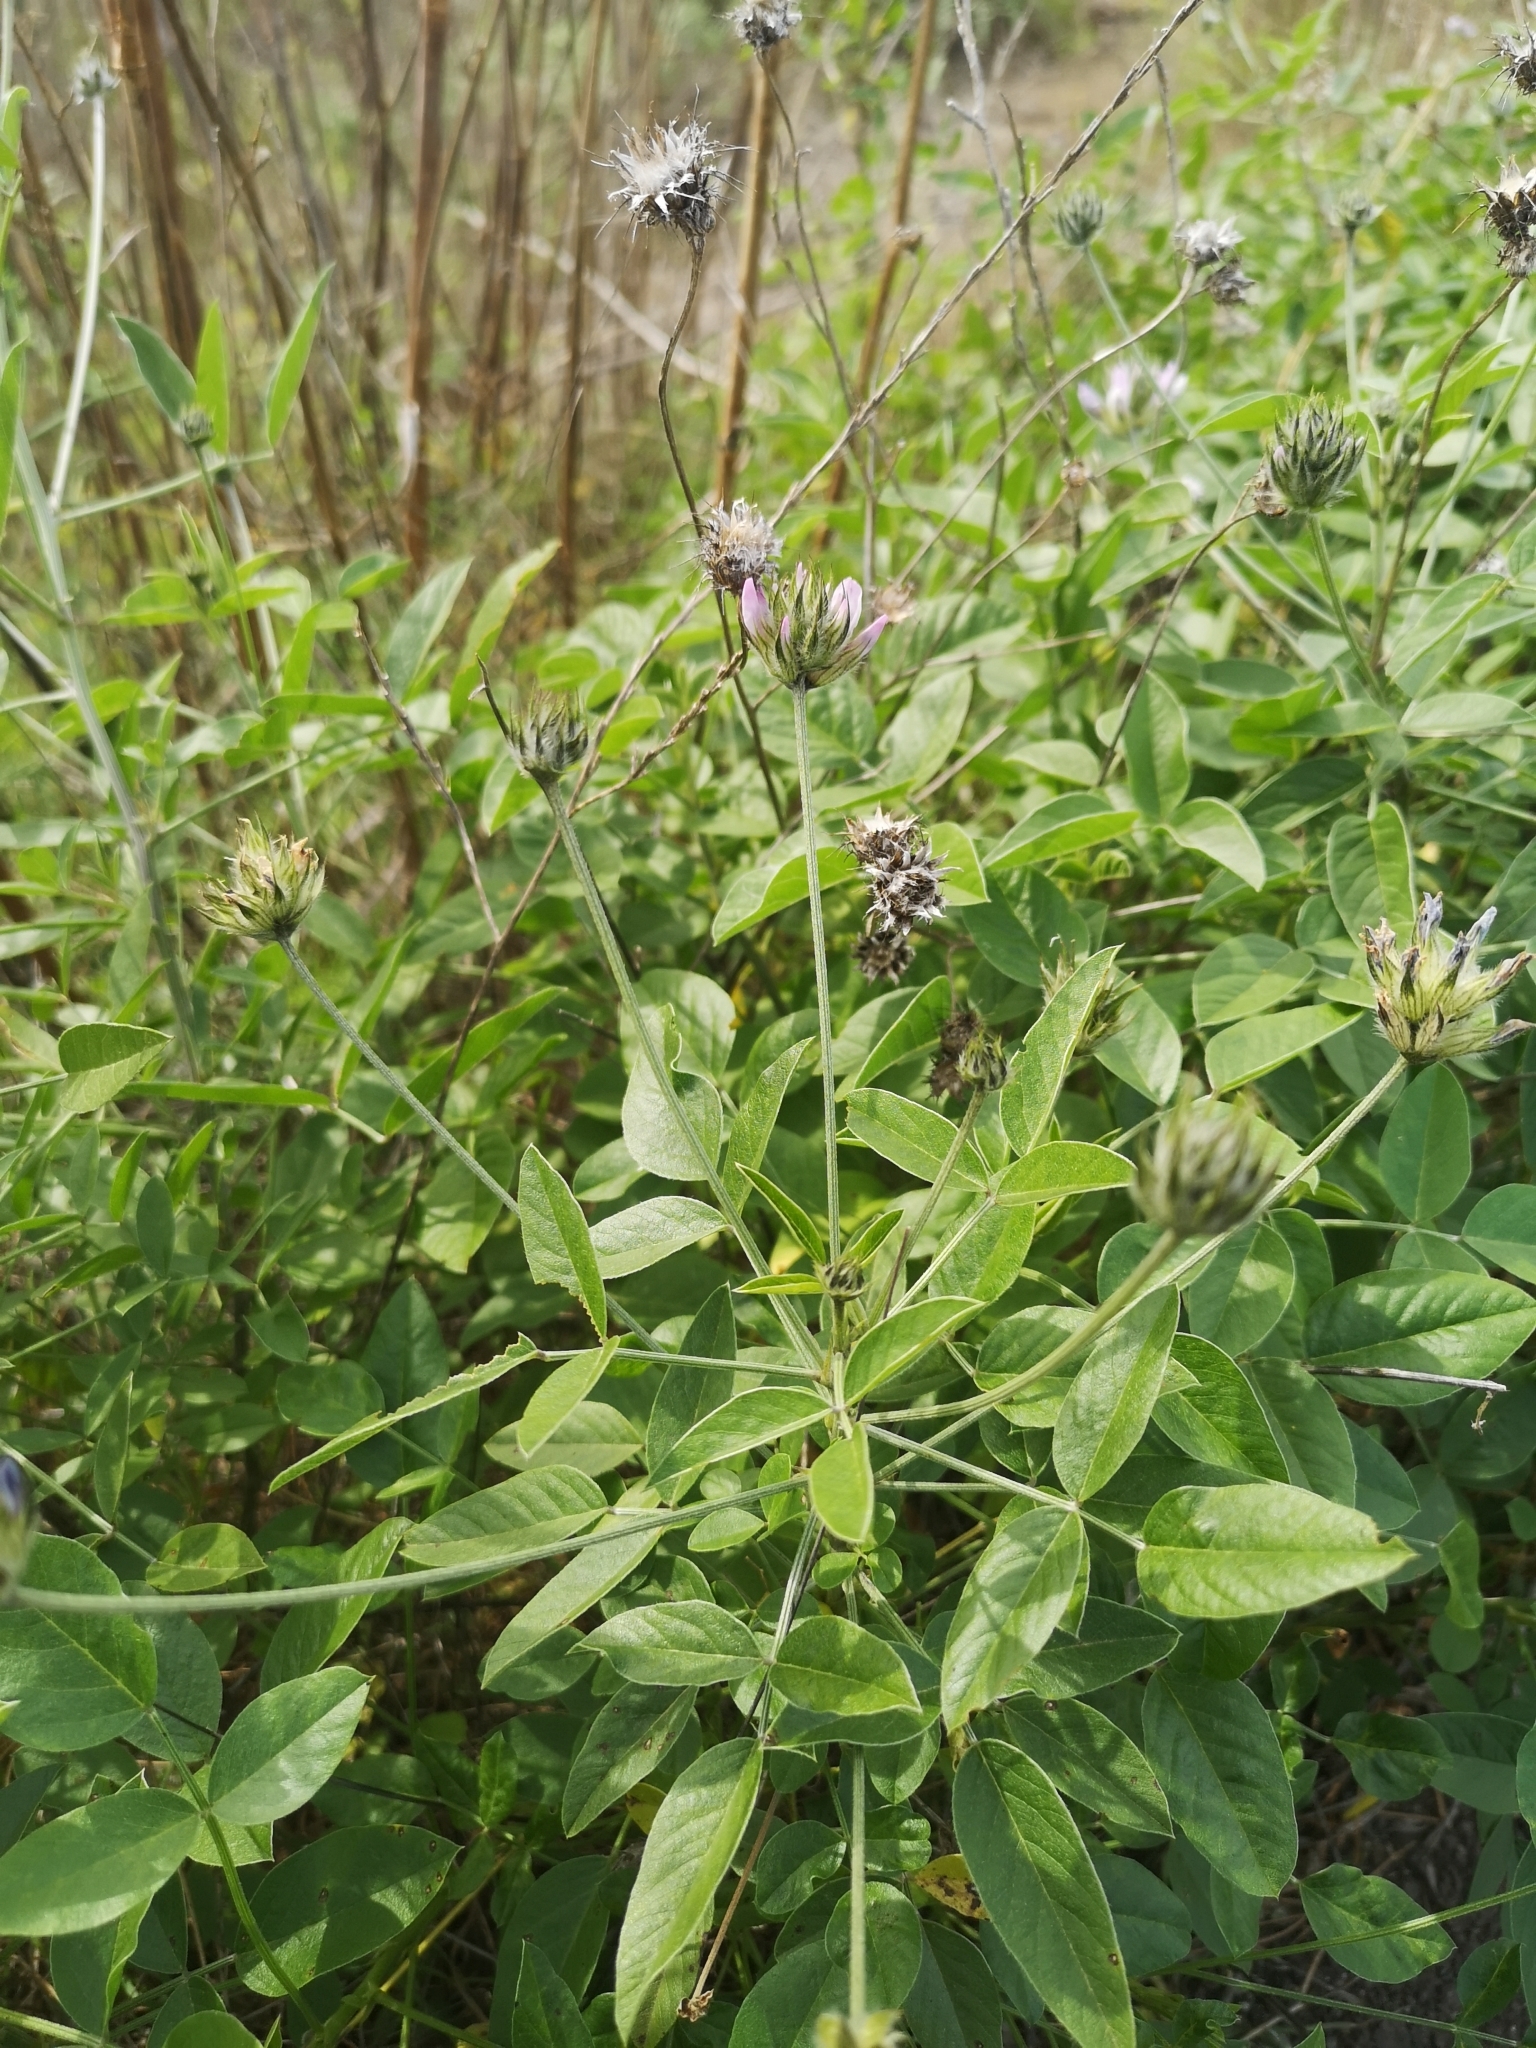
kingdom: Plantae
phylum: Tracheophyta
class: Magnoliopsida
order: Fabales
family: Fabaceae
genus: Bituminaria
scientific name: Bituminaria bituminosa
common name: Arabian pea
